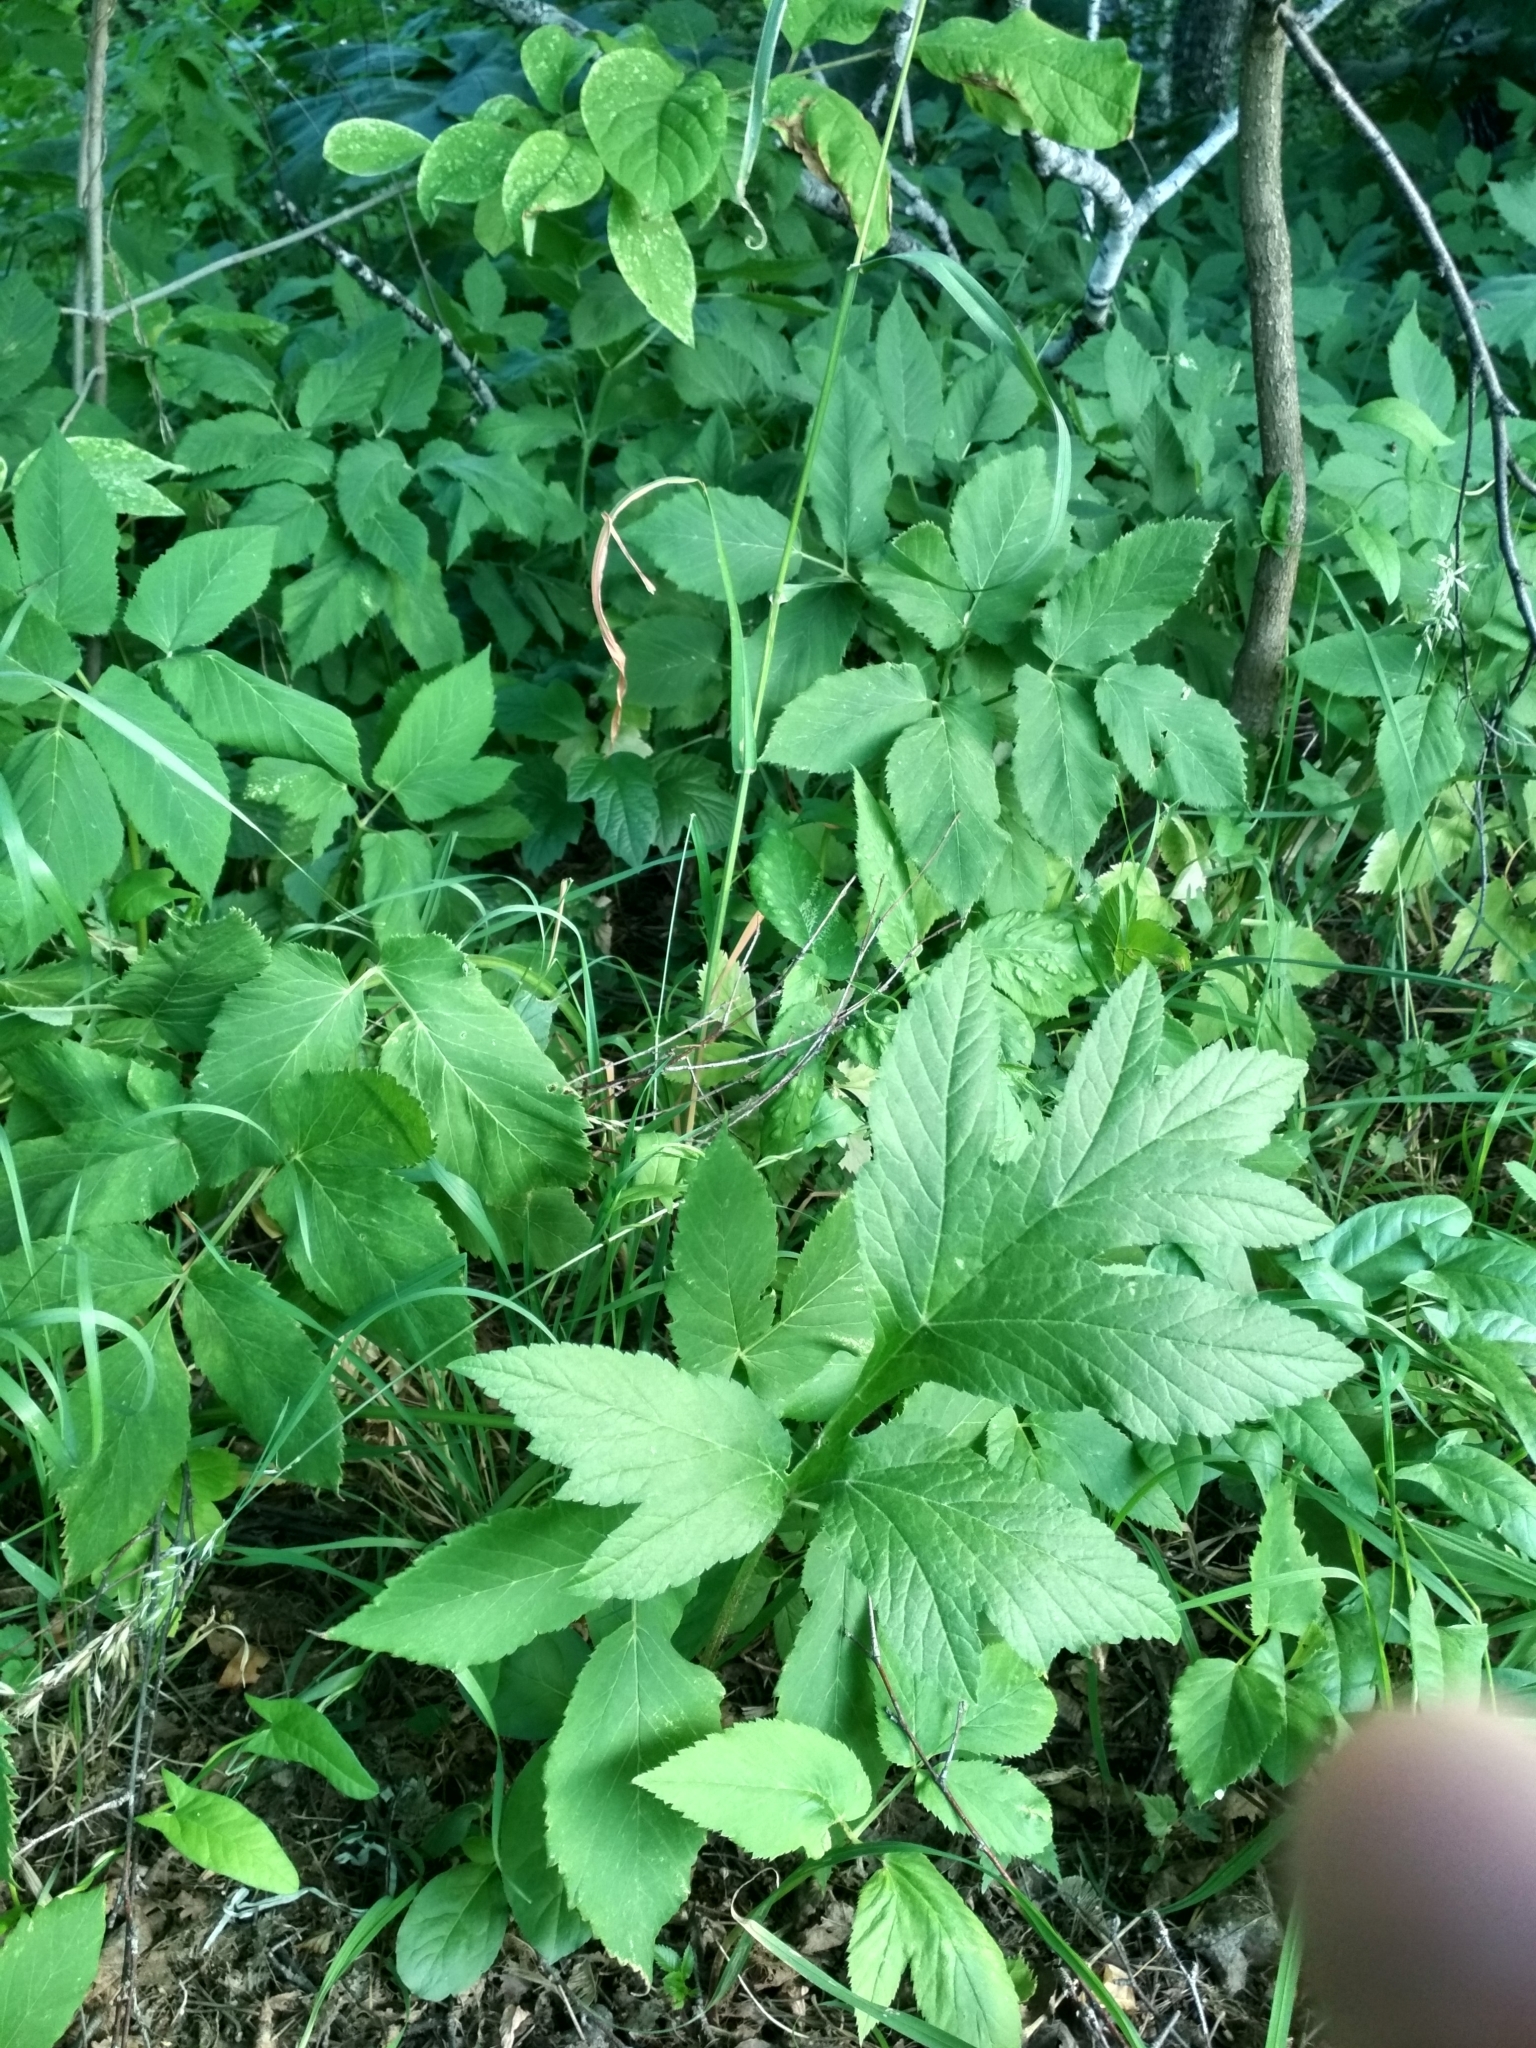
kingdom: Plantae
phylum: Tracheophyta
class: Magnoliopsida
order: Apiales
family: Apiaceae
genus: Heracleum
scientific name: Heracleum dissectum
